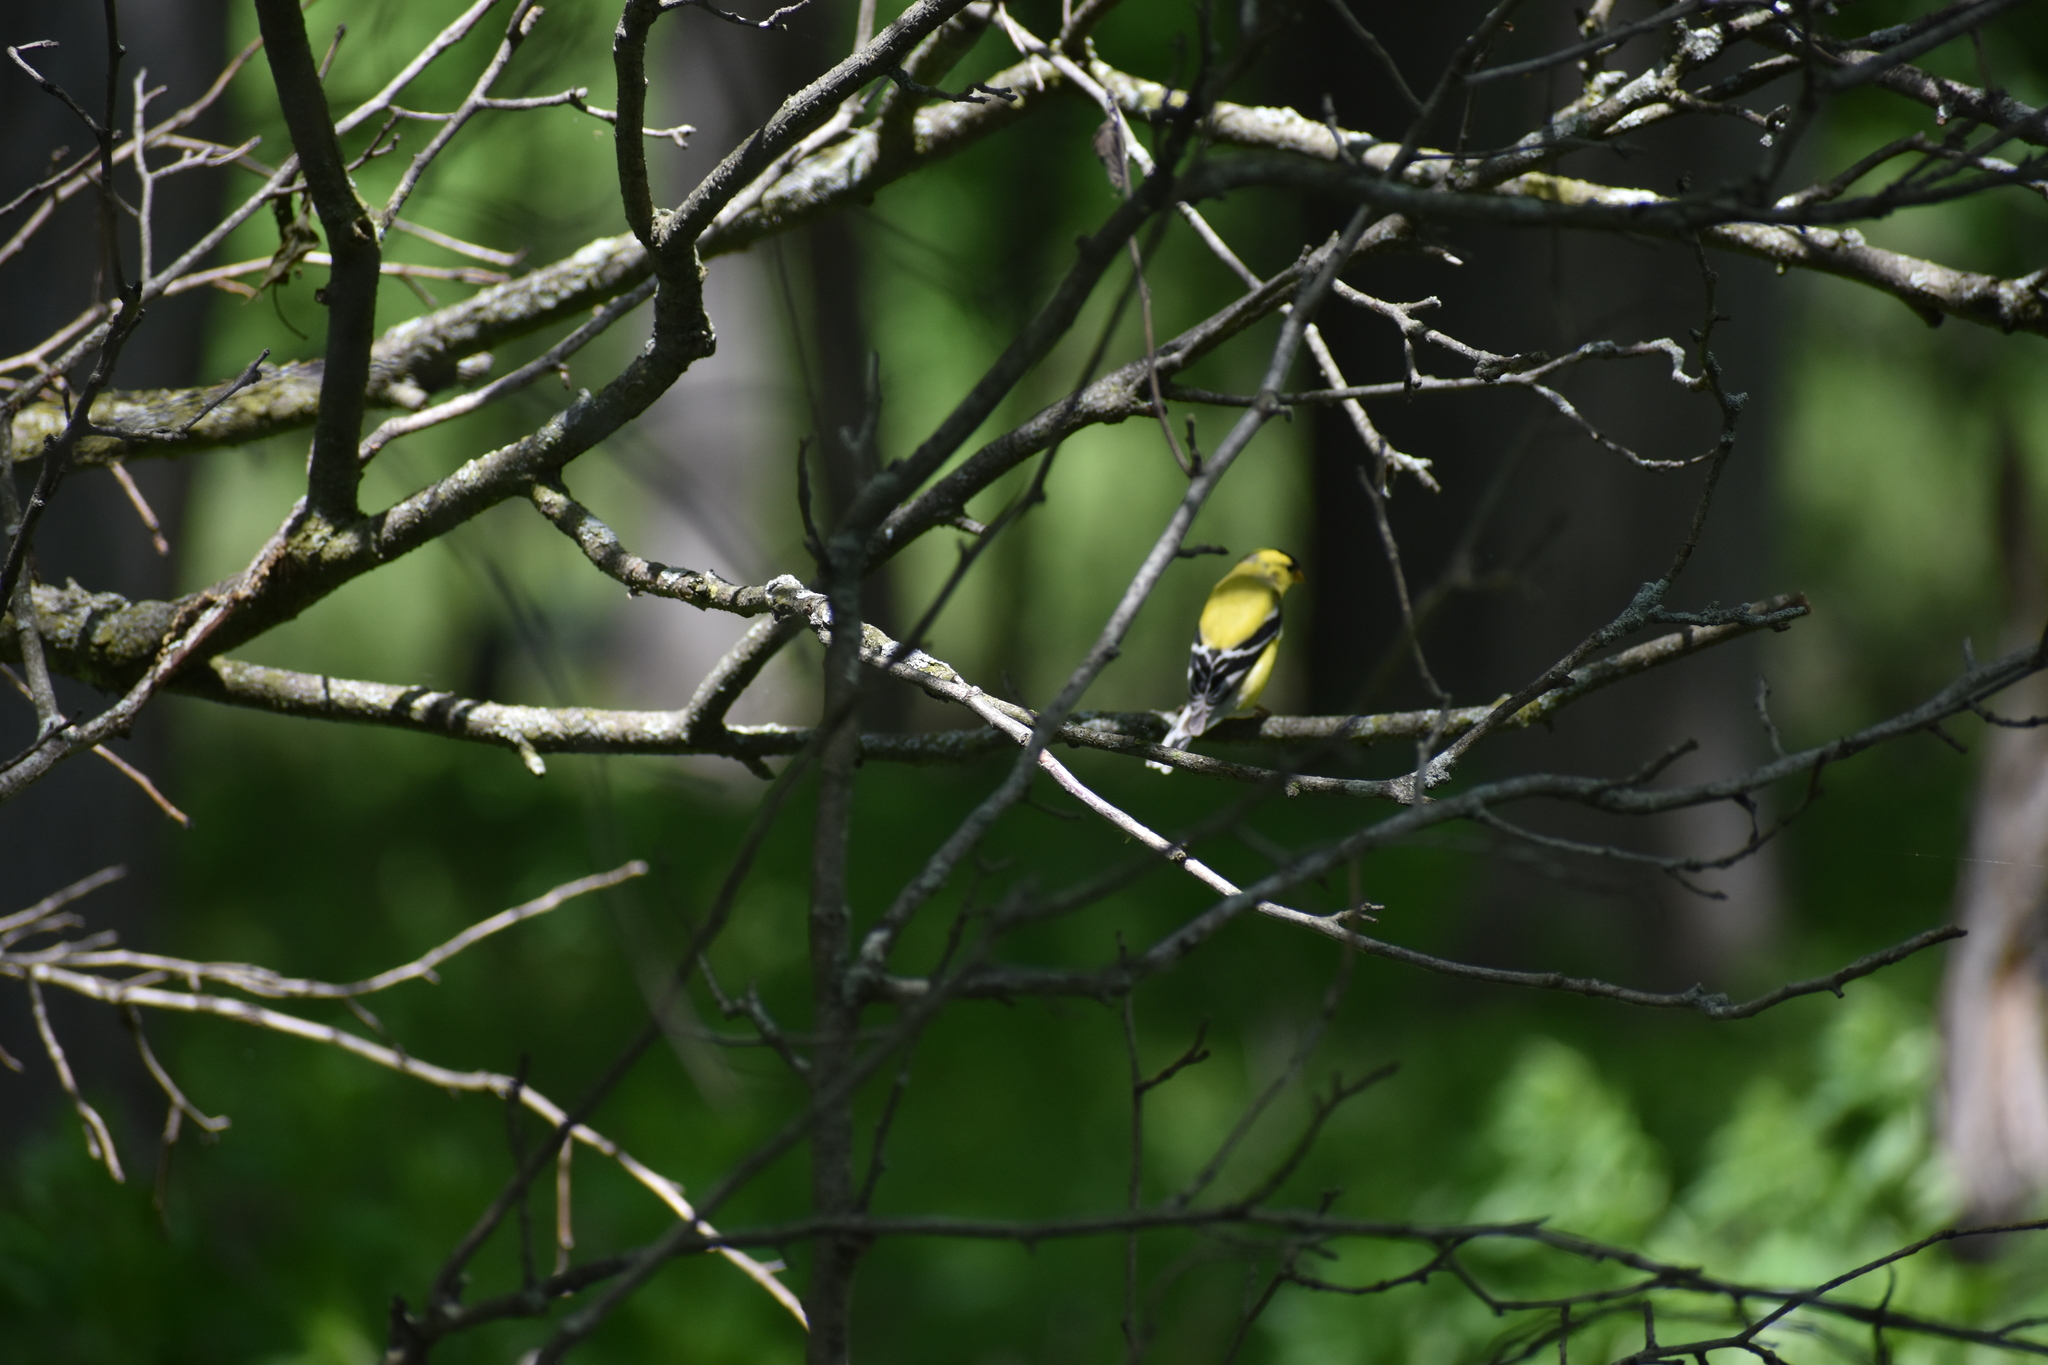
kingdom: Animalia
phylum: Chordata
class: Aves
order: Passeriformes
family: Fringillidae
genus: Spinus
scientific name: Spinus tristis
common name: American goldfinch
